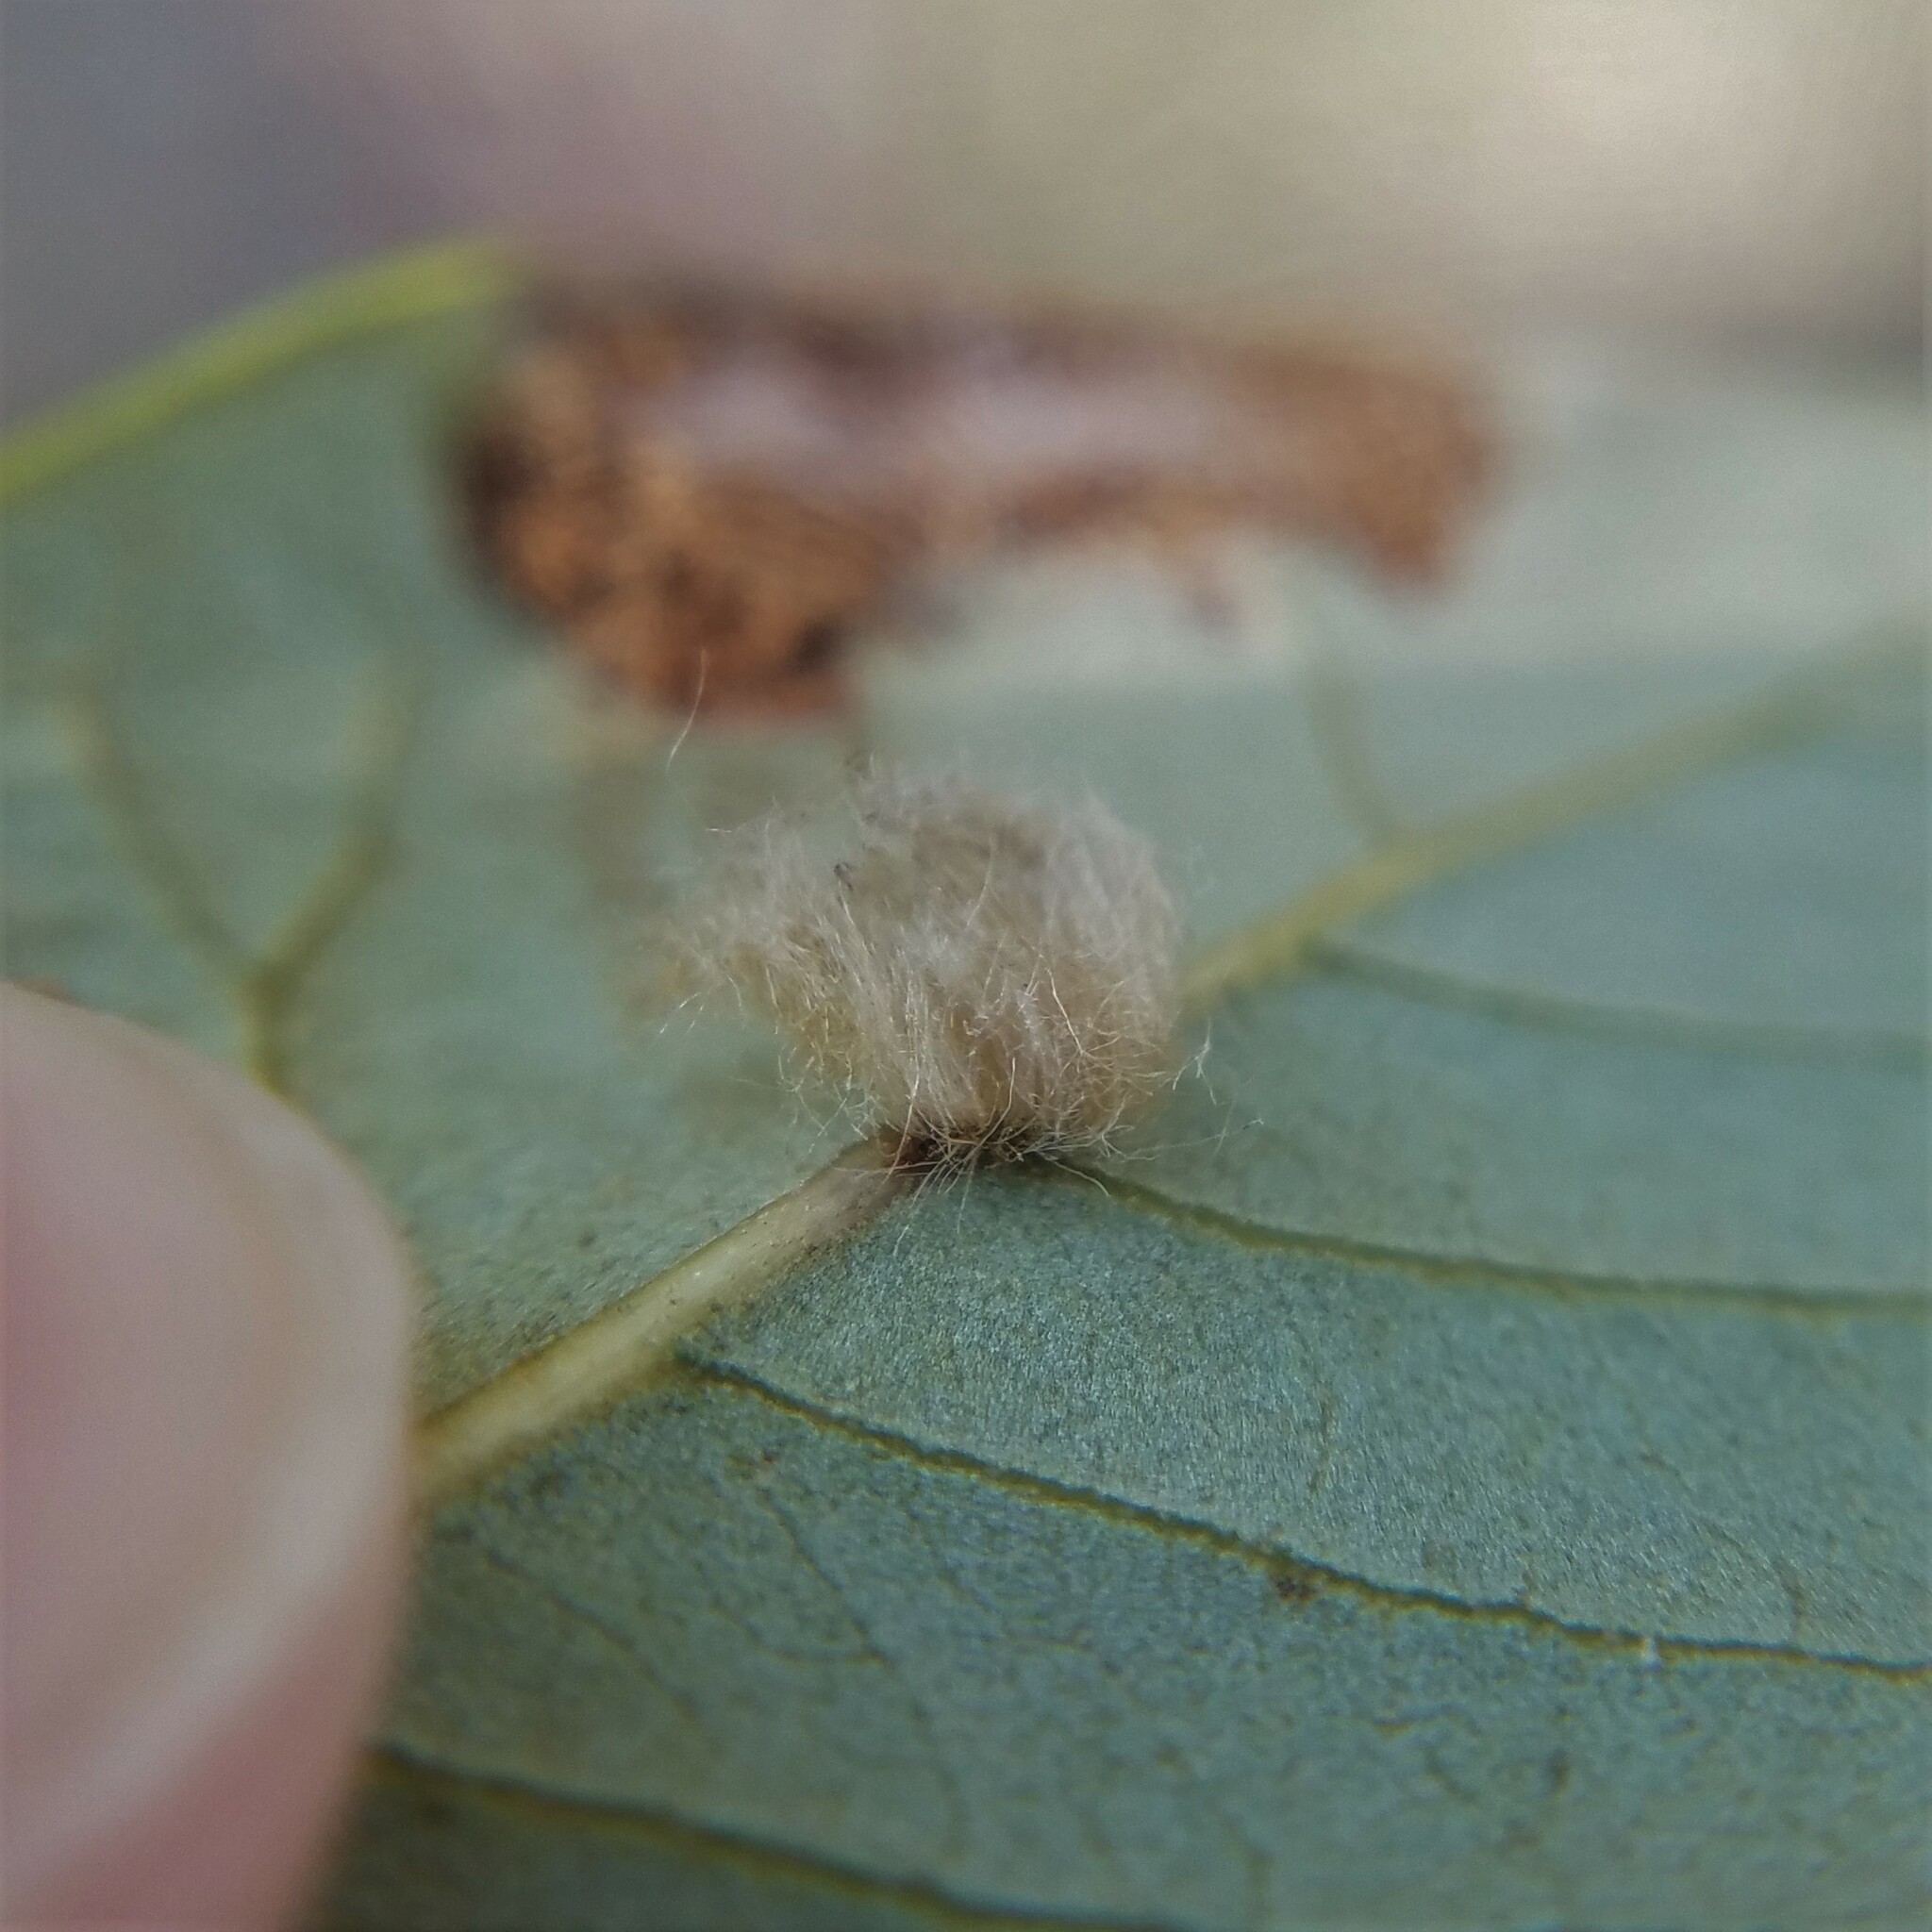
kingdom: Animalia
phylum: Arthropoda
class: Insecta
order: Hymenoptera
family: Cynipidae
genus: Andricus
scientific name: Andricus Druon quercuslanigerum
